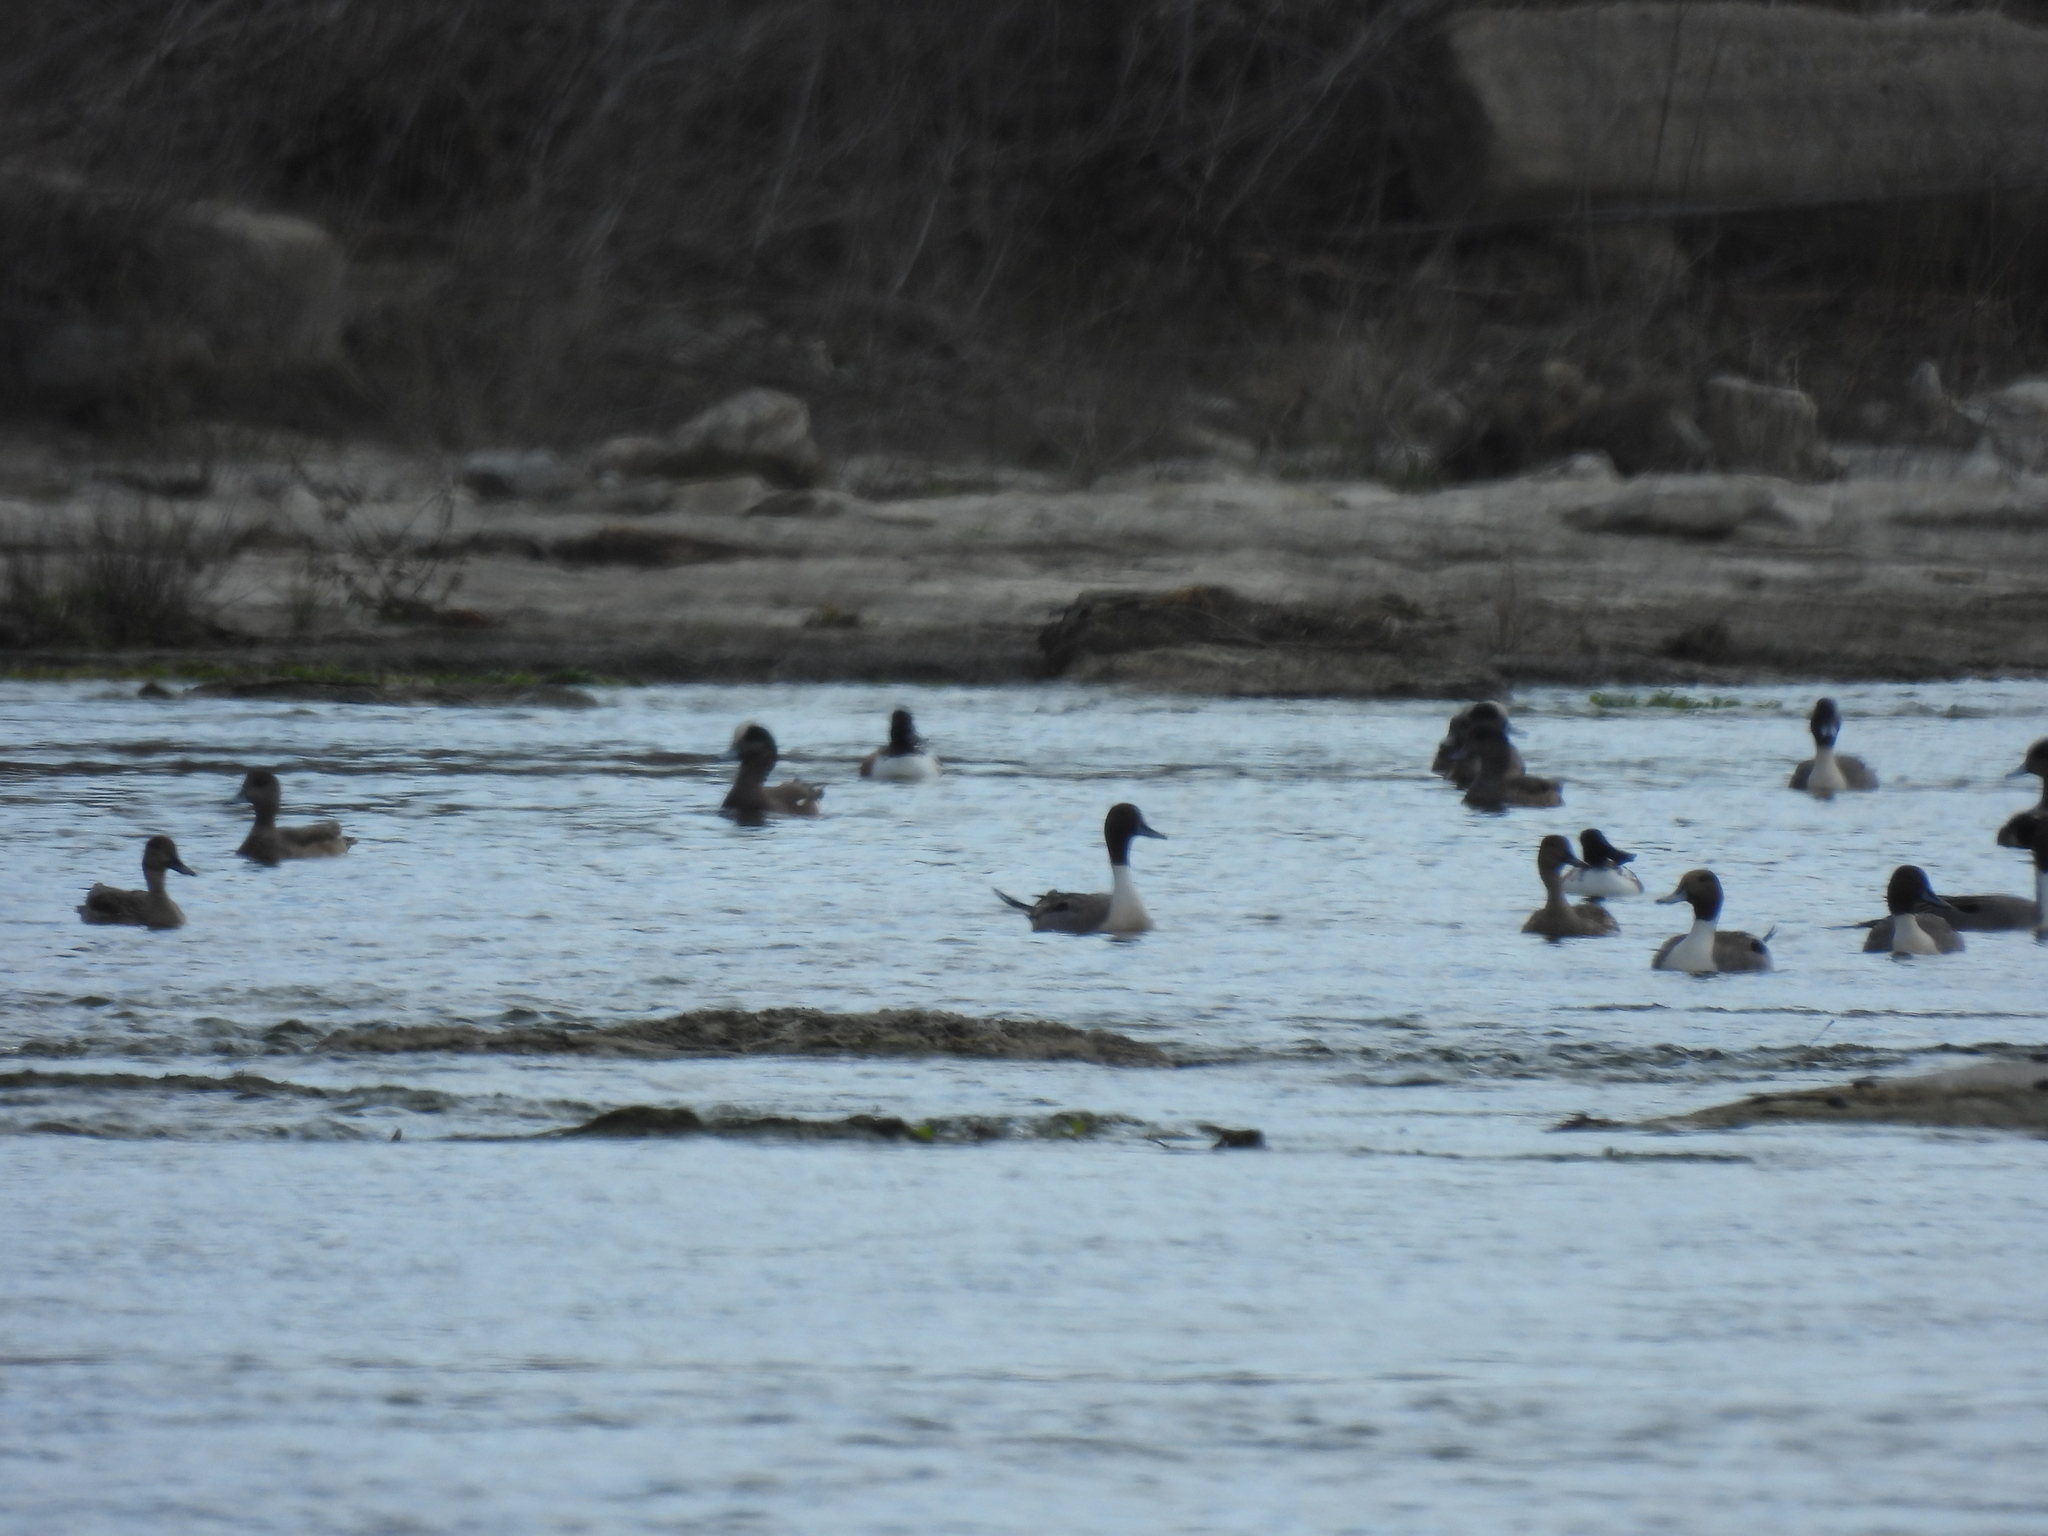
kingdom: Animalia
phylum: Chordata
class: Aves
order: Anseriformes
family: Anatidae
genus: Anas
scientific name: Anas acuta
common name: Northern pintail
